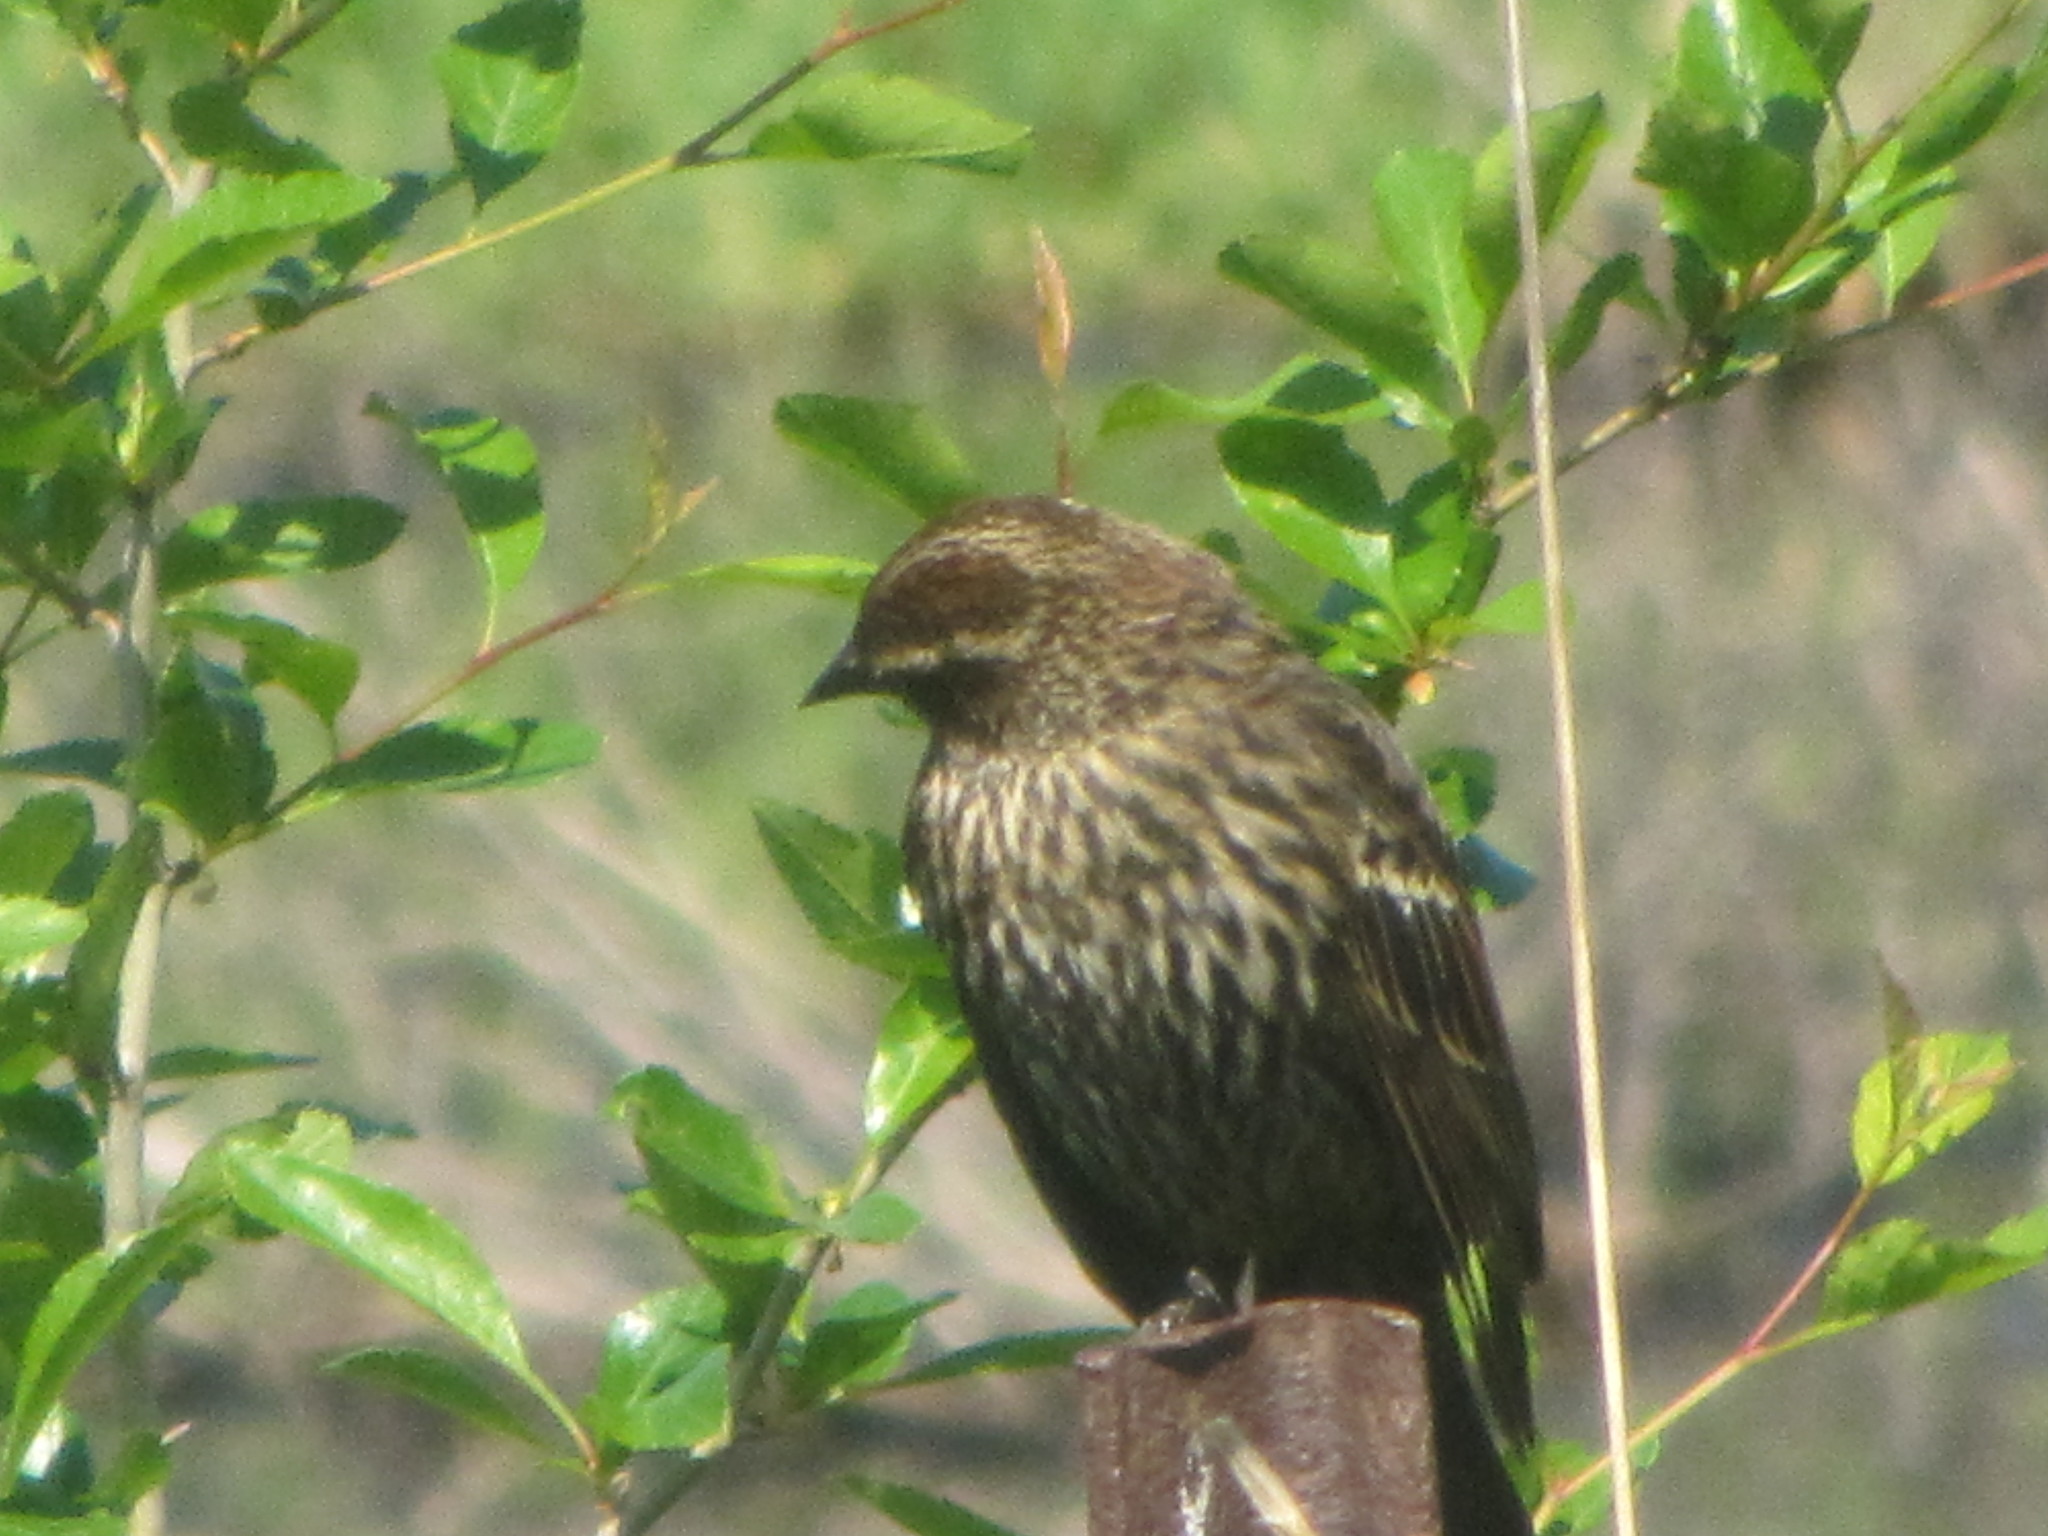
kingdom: Animalia
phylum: Chordata
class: Aves
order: Passeriformes
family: Icteridae
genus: Agelaius
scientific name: Agelaius phoeniceus
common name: Red-winged blackbird
